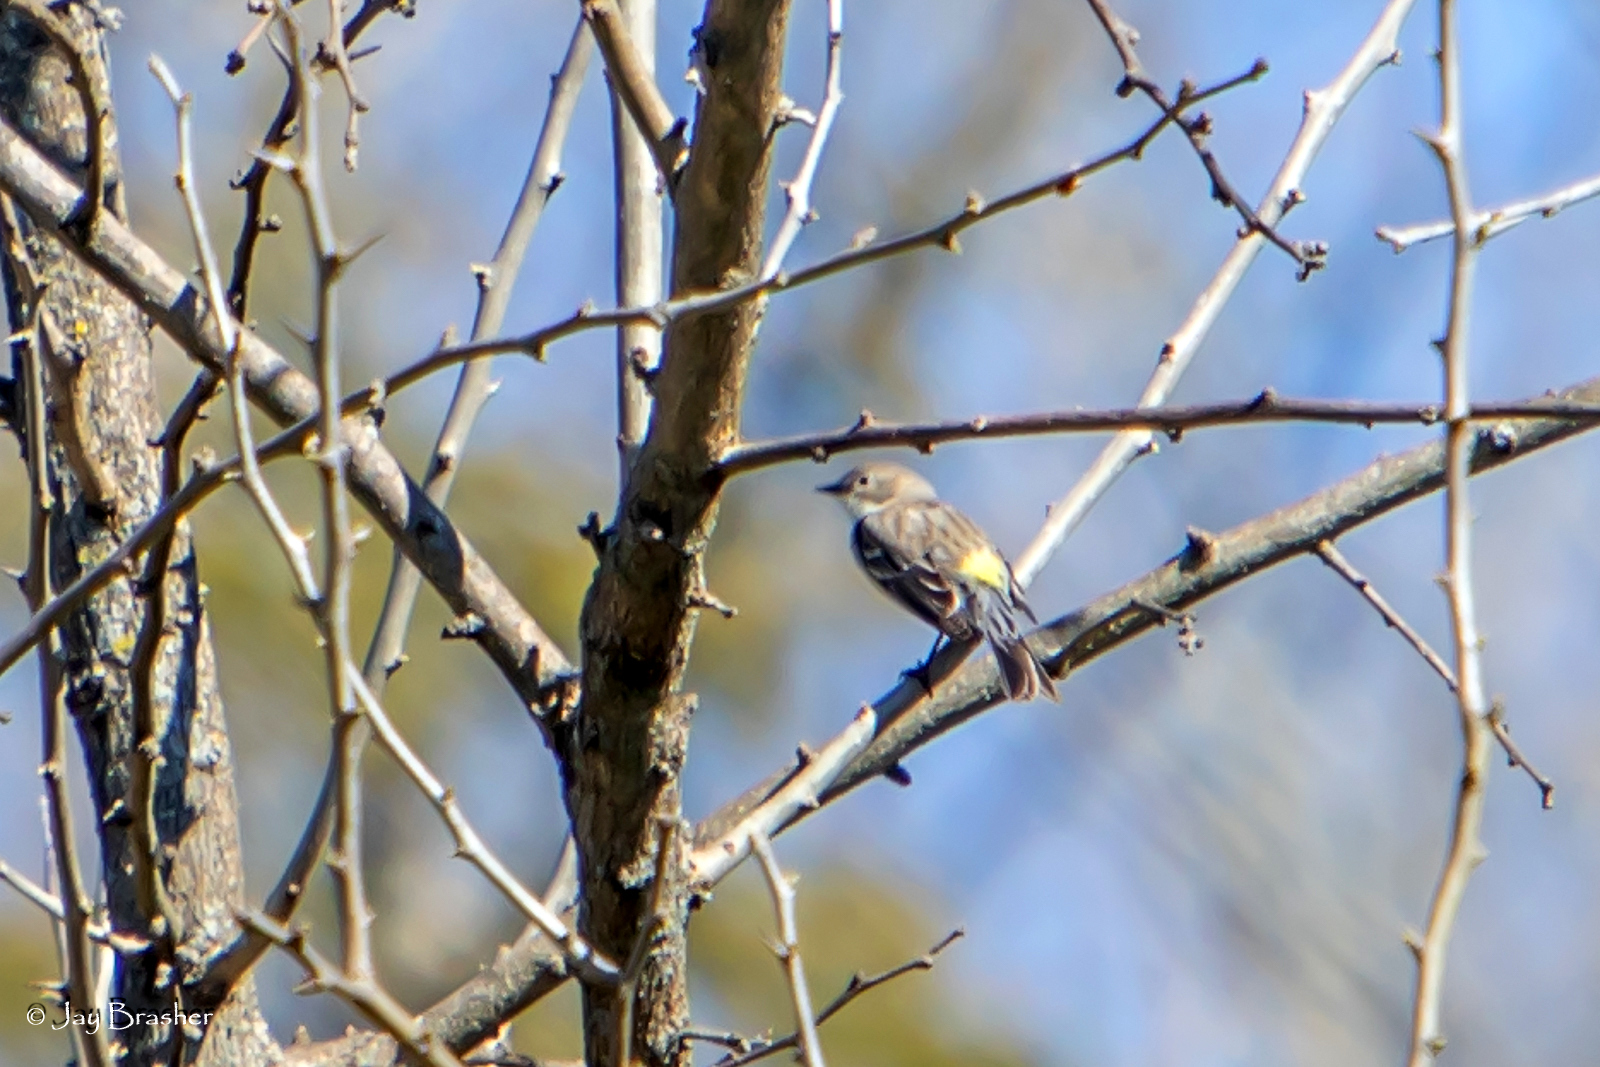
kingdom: Animalia
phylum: Chordata
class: Aves
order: Passeriformes
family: Parulidae
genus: Setophaga
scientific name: Setophaga coronata
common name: Myrtle warbler
